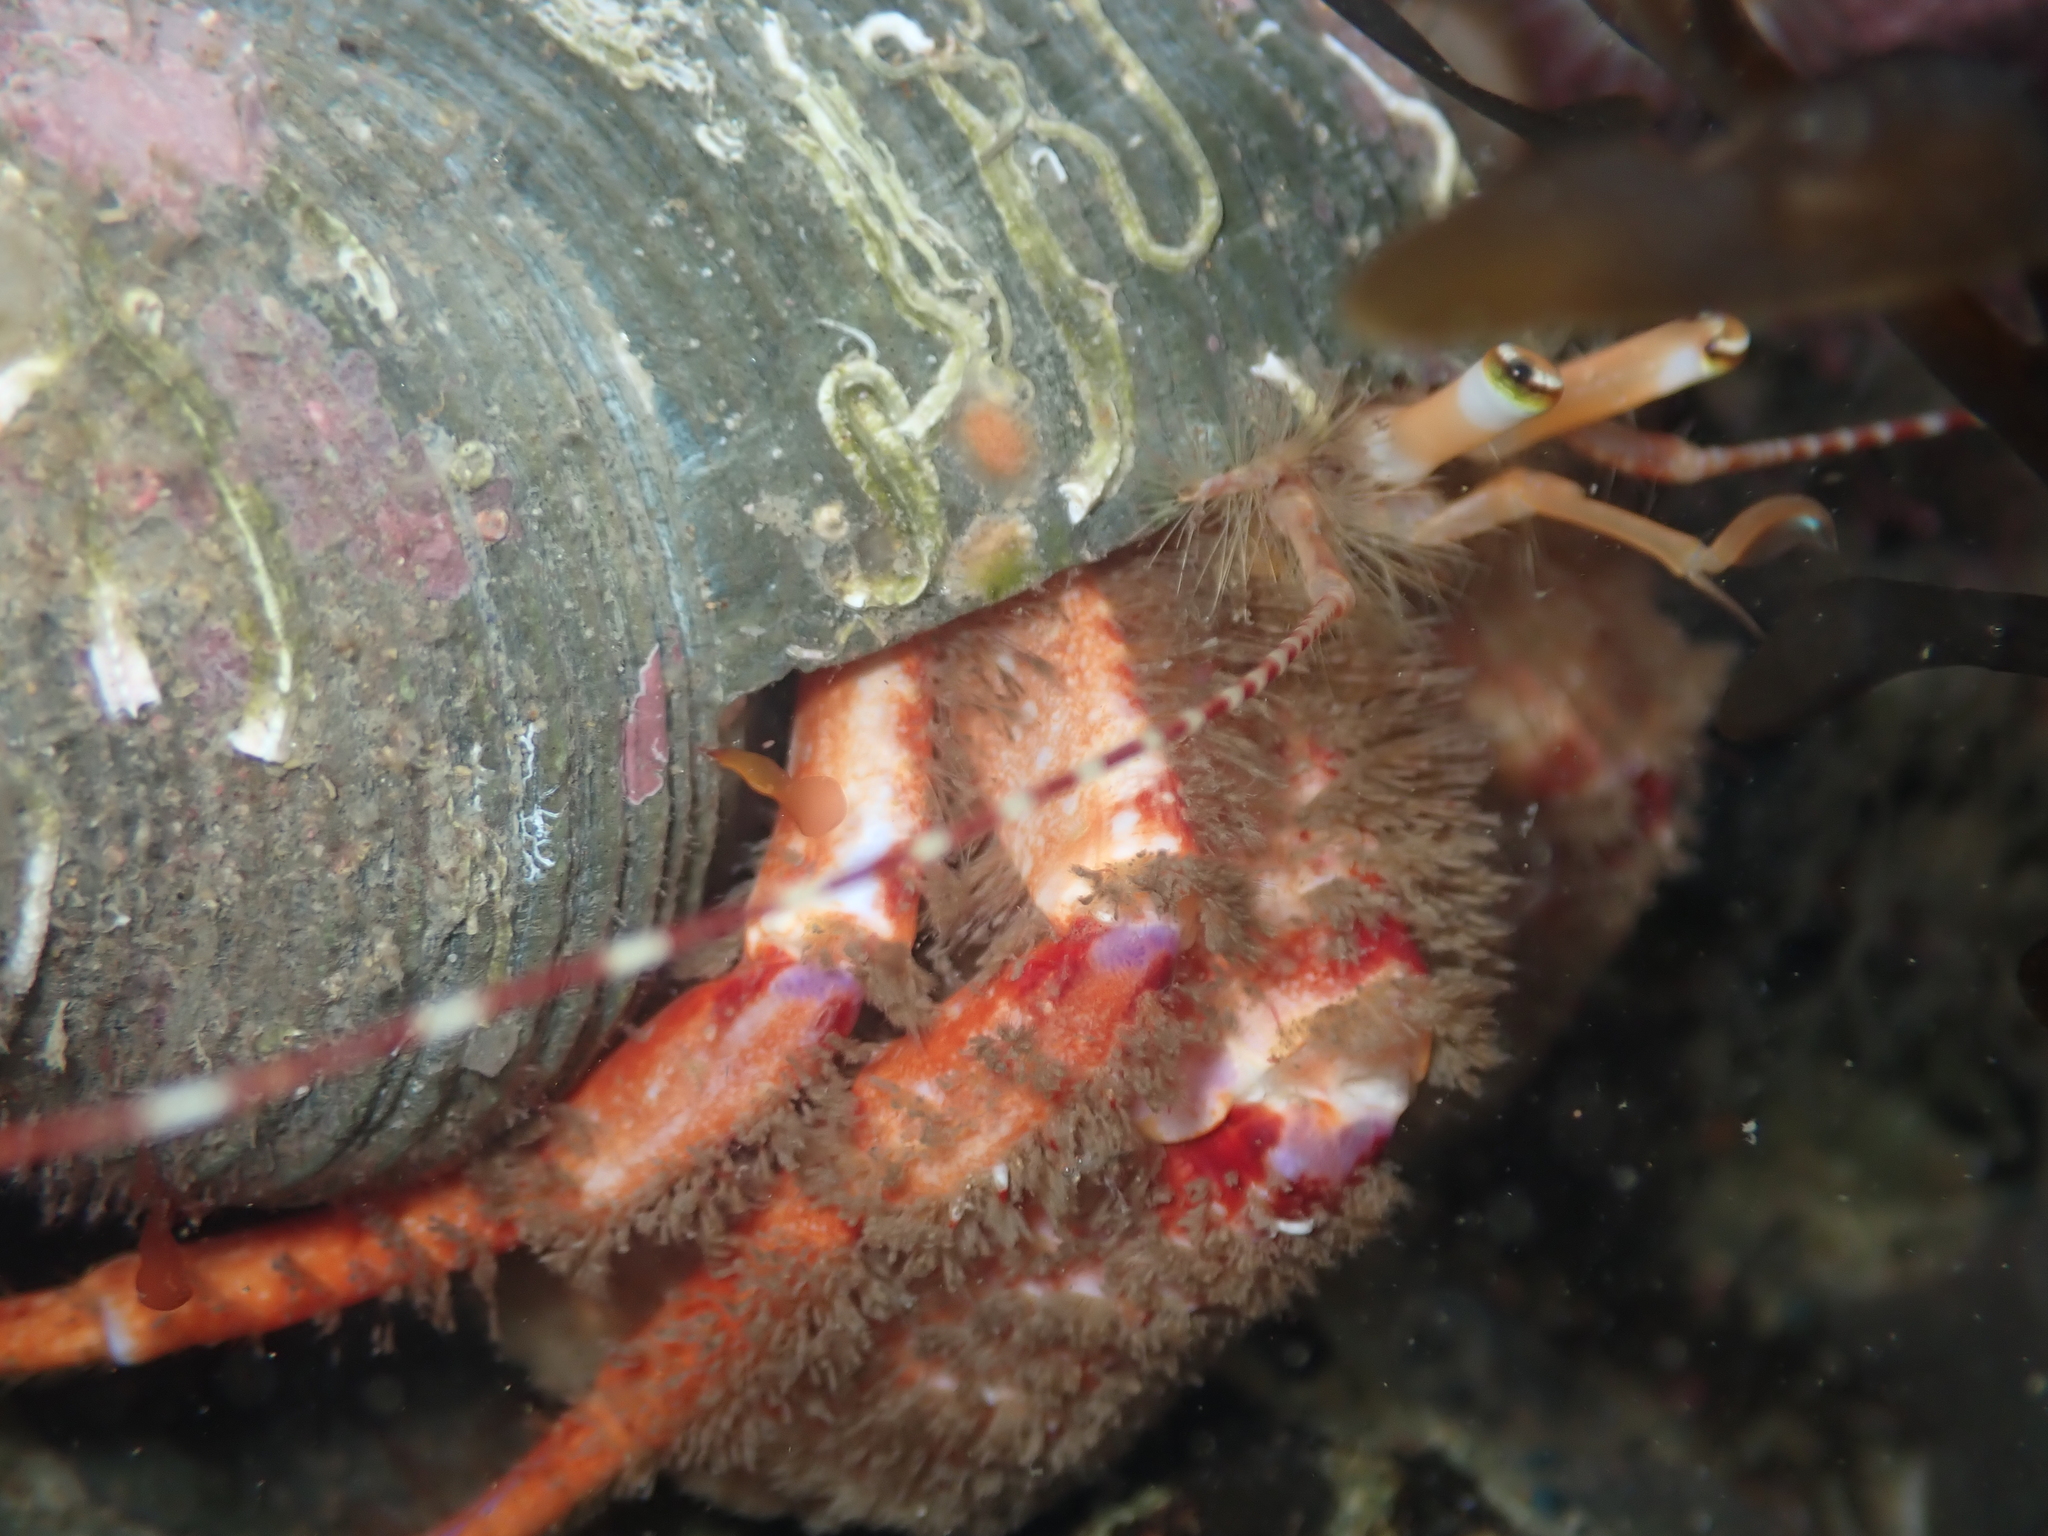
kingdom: Animalia
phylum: Arthropoda
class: Malacostraca
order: Decapoda
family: Paguridae
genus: Diacanthurus
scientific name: Diacanthurus spinulimanus
